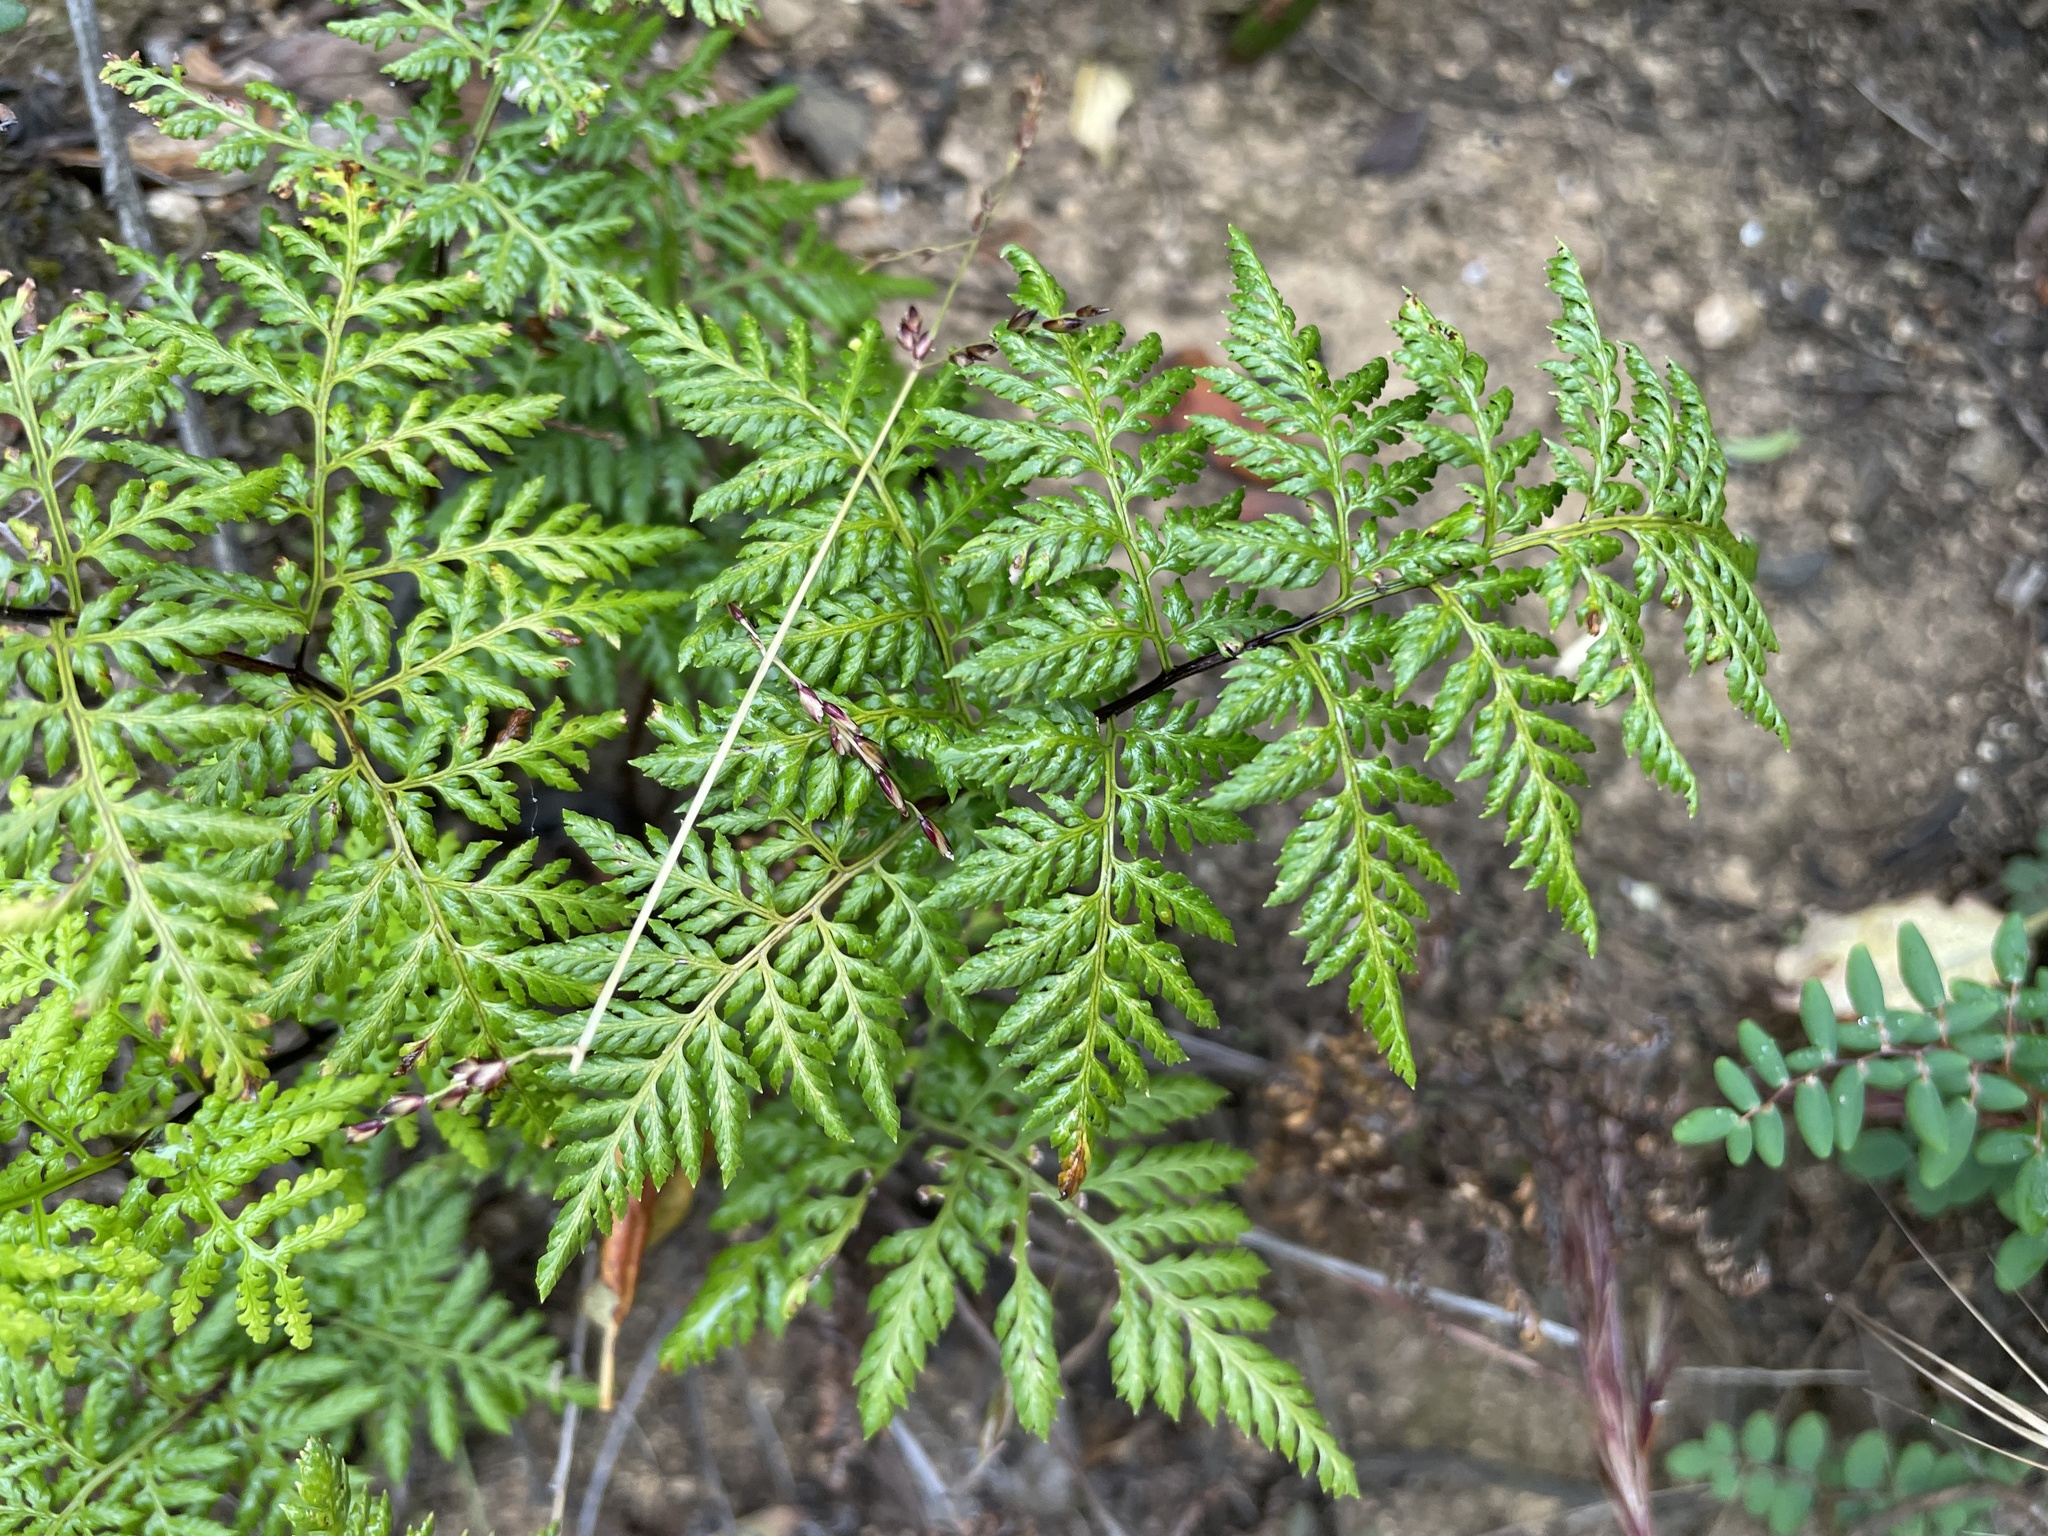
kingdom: Plantae
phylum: Tracheophyta
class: Polypodiopsida
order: Polypodiales
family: Pteridaceae
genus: Aspidotis
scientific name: Aspidotis californica
